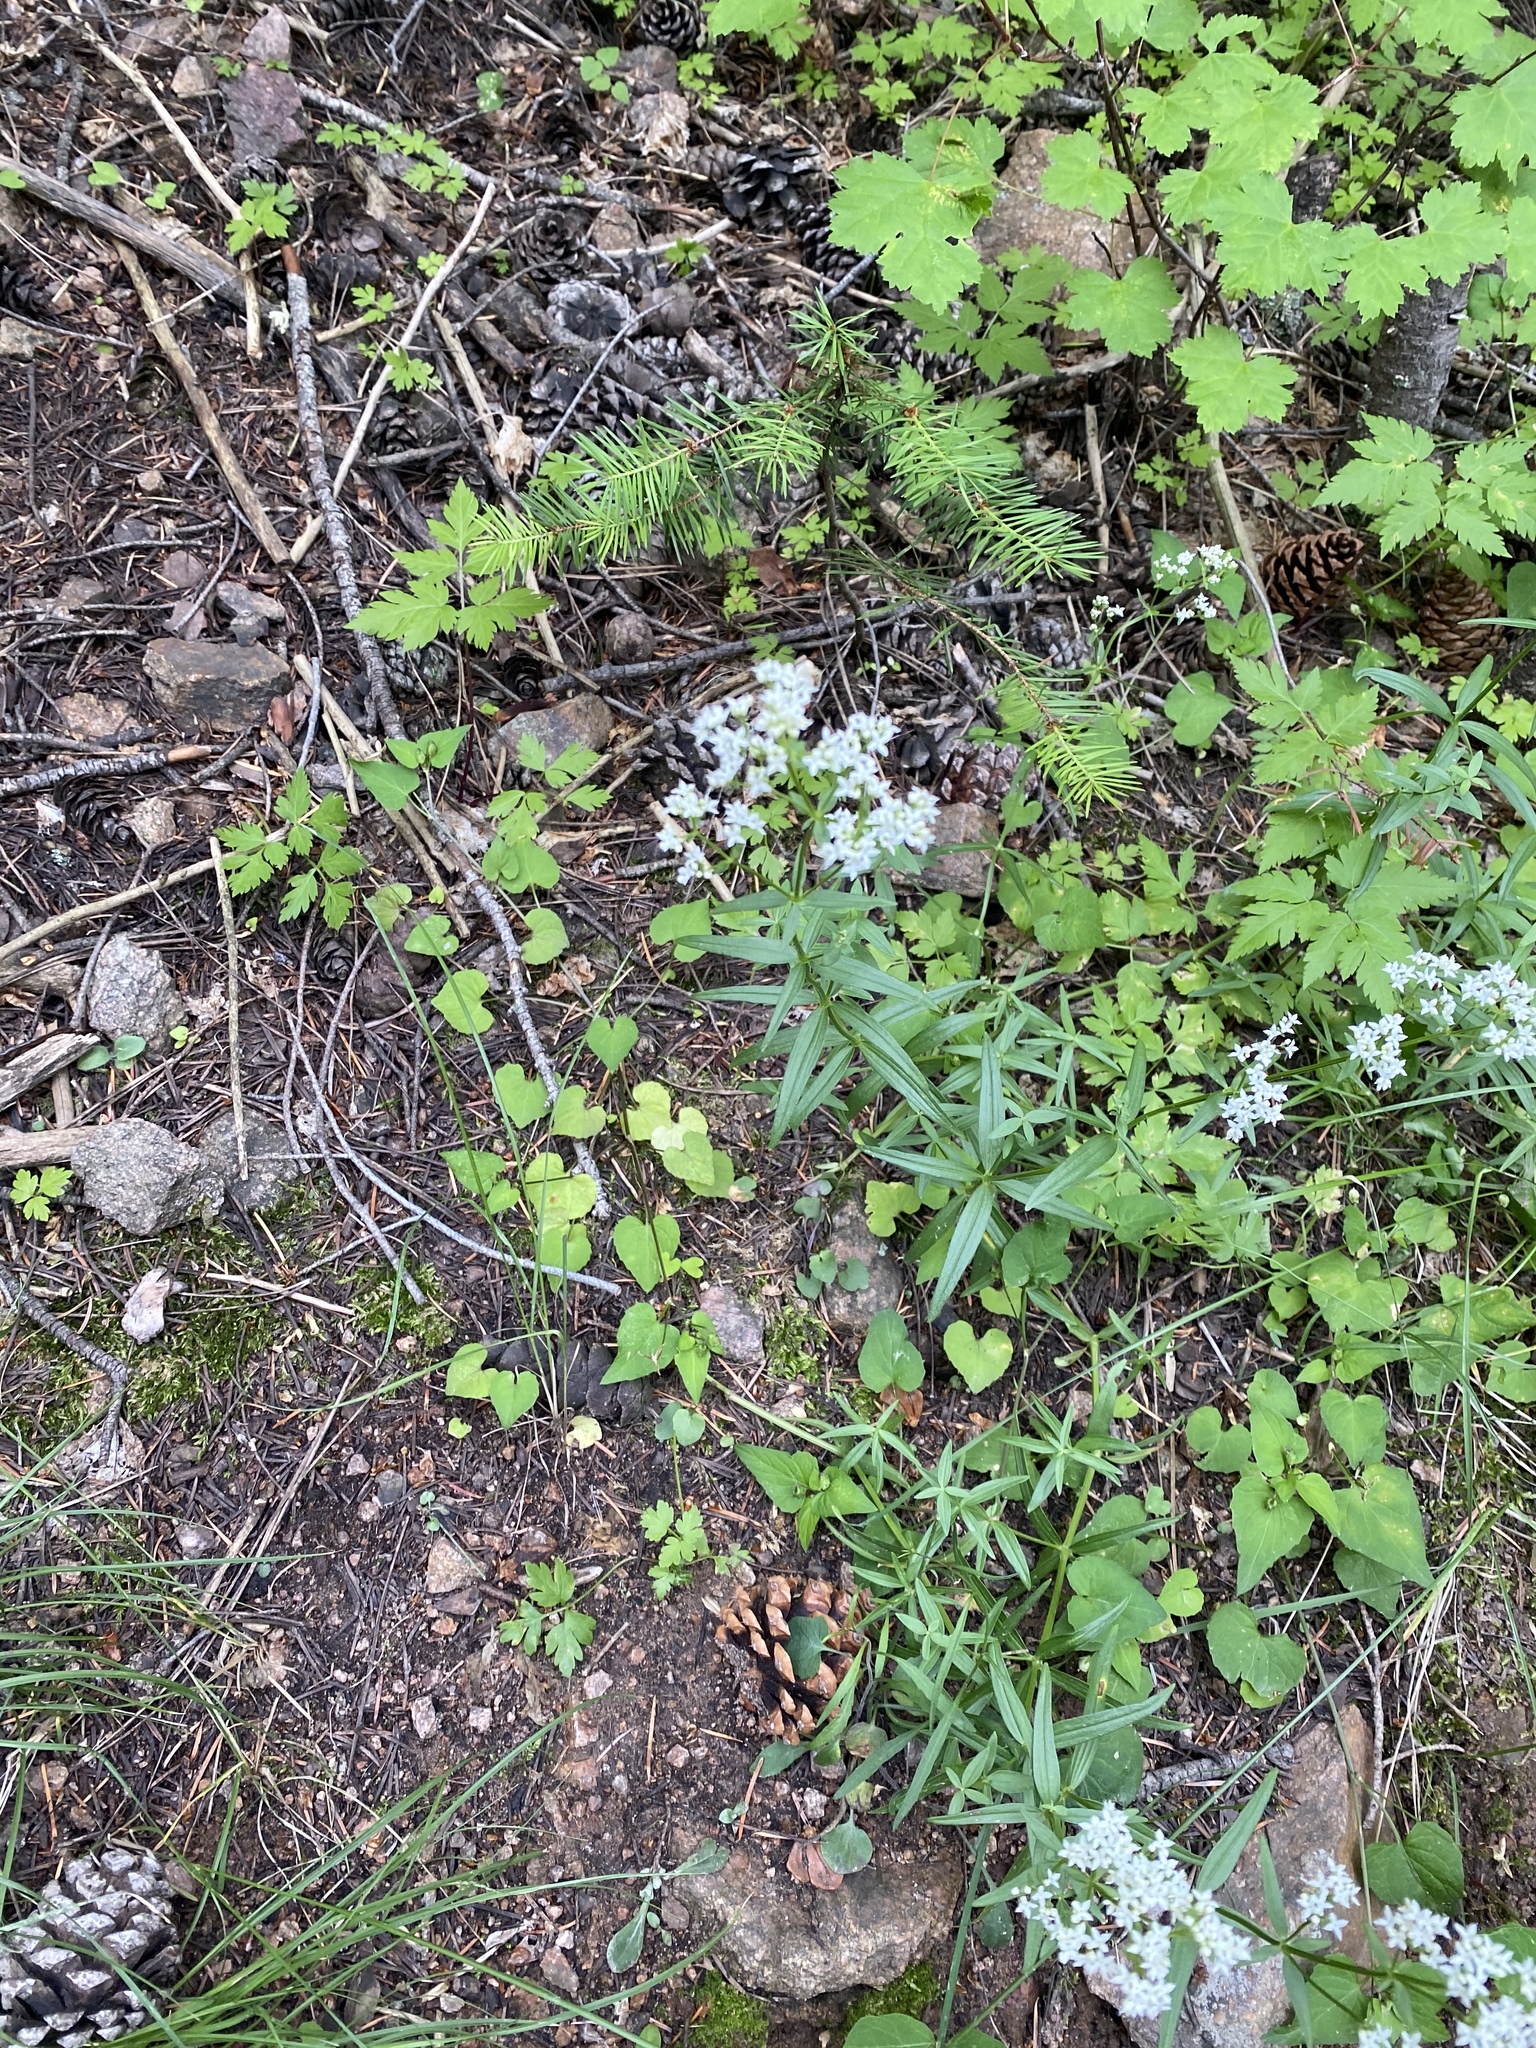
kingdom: Plantae
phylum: Tracheophyta
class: Magnoliopsida
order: Gentianales
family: Rubiaceae
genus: Galium
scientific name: Galium boreale
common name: Northern bedstraw
